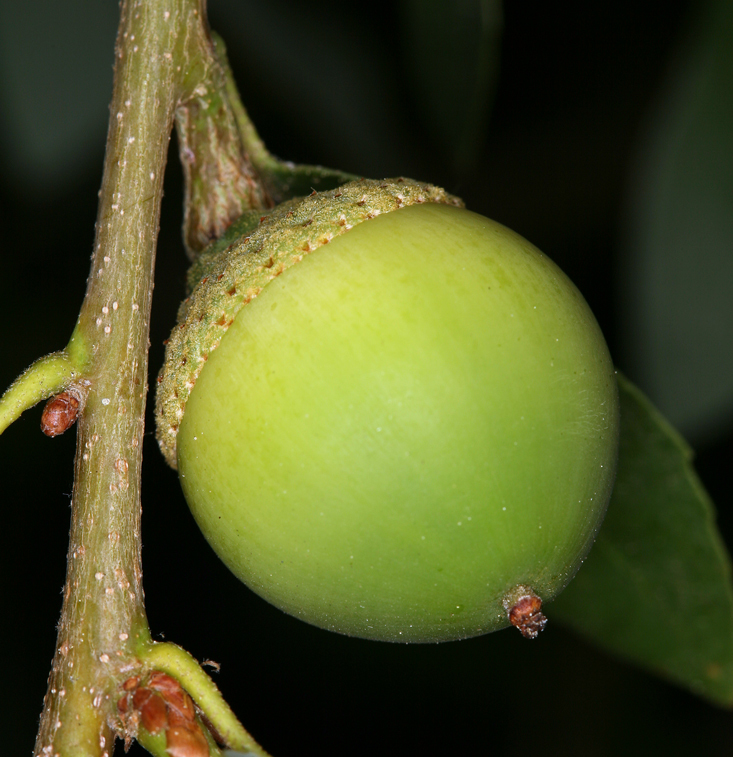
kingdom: Plantae
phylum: Tracheophyta
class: Magnoliopsida
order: Fagales
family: Fagaceae
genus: Quercus
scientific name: Quercus vacciniifolia
